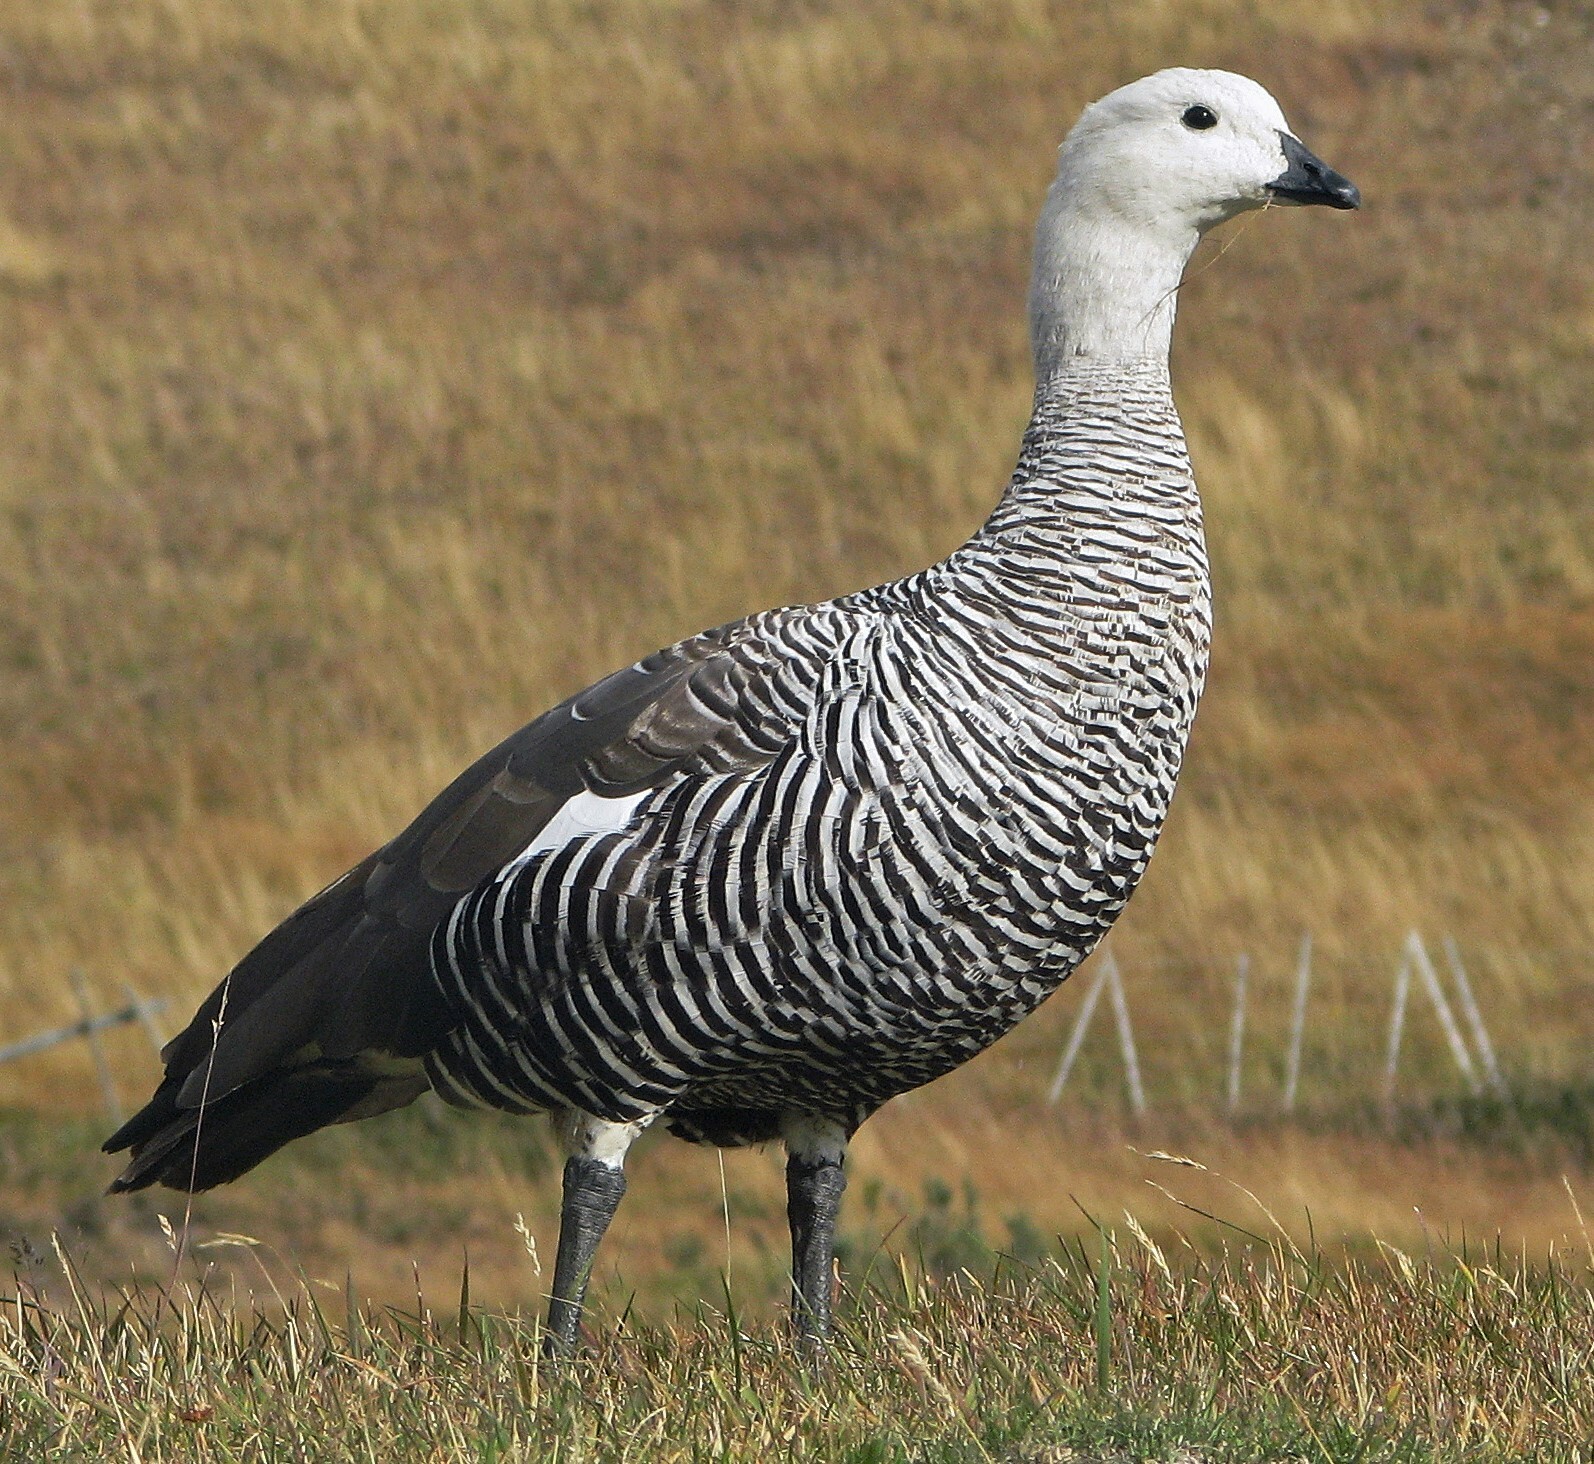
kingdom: Animalia
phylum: Chordata
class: Aves
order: Anseriformes
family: Anatidae
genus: Chloephaga
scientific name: Chloephaga picta
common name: Upland goose
